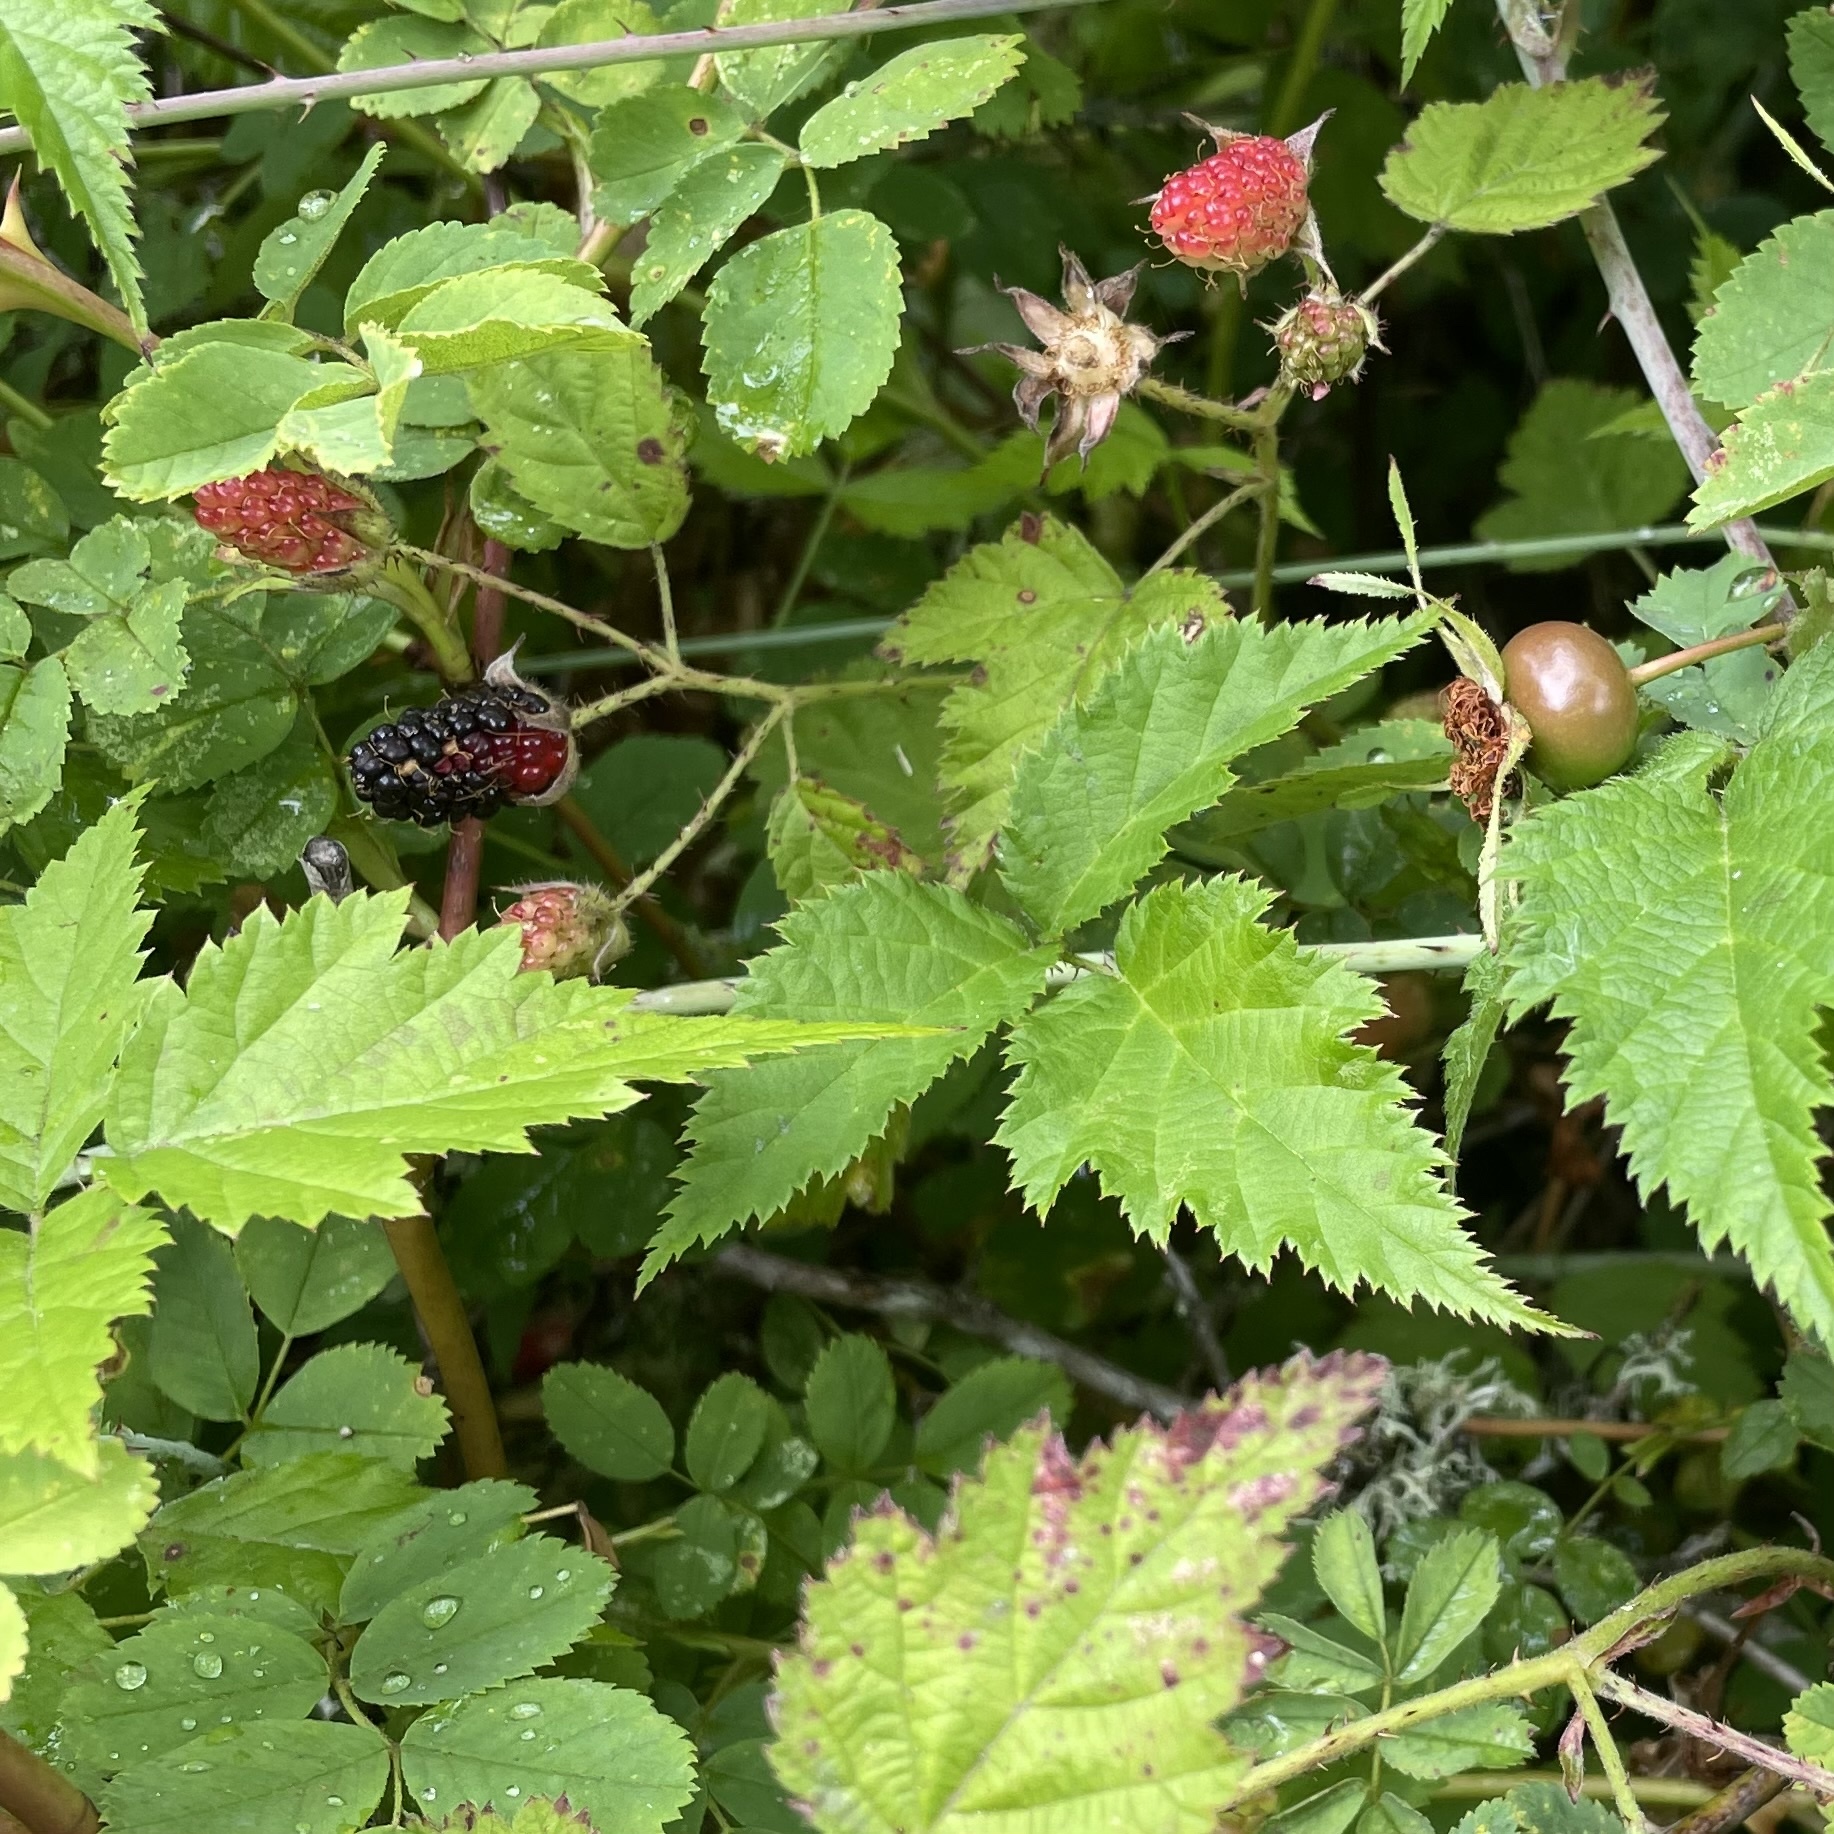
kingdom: Plantae
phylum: Tracheophyta
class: Magnoliopsida
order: Rosales
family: Rosaceae
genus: Rubus
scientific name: Rubus ursinus
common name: Pacific blackberry
